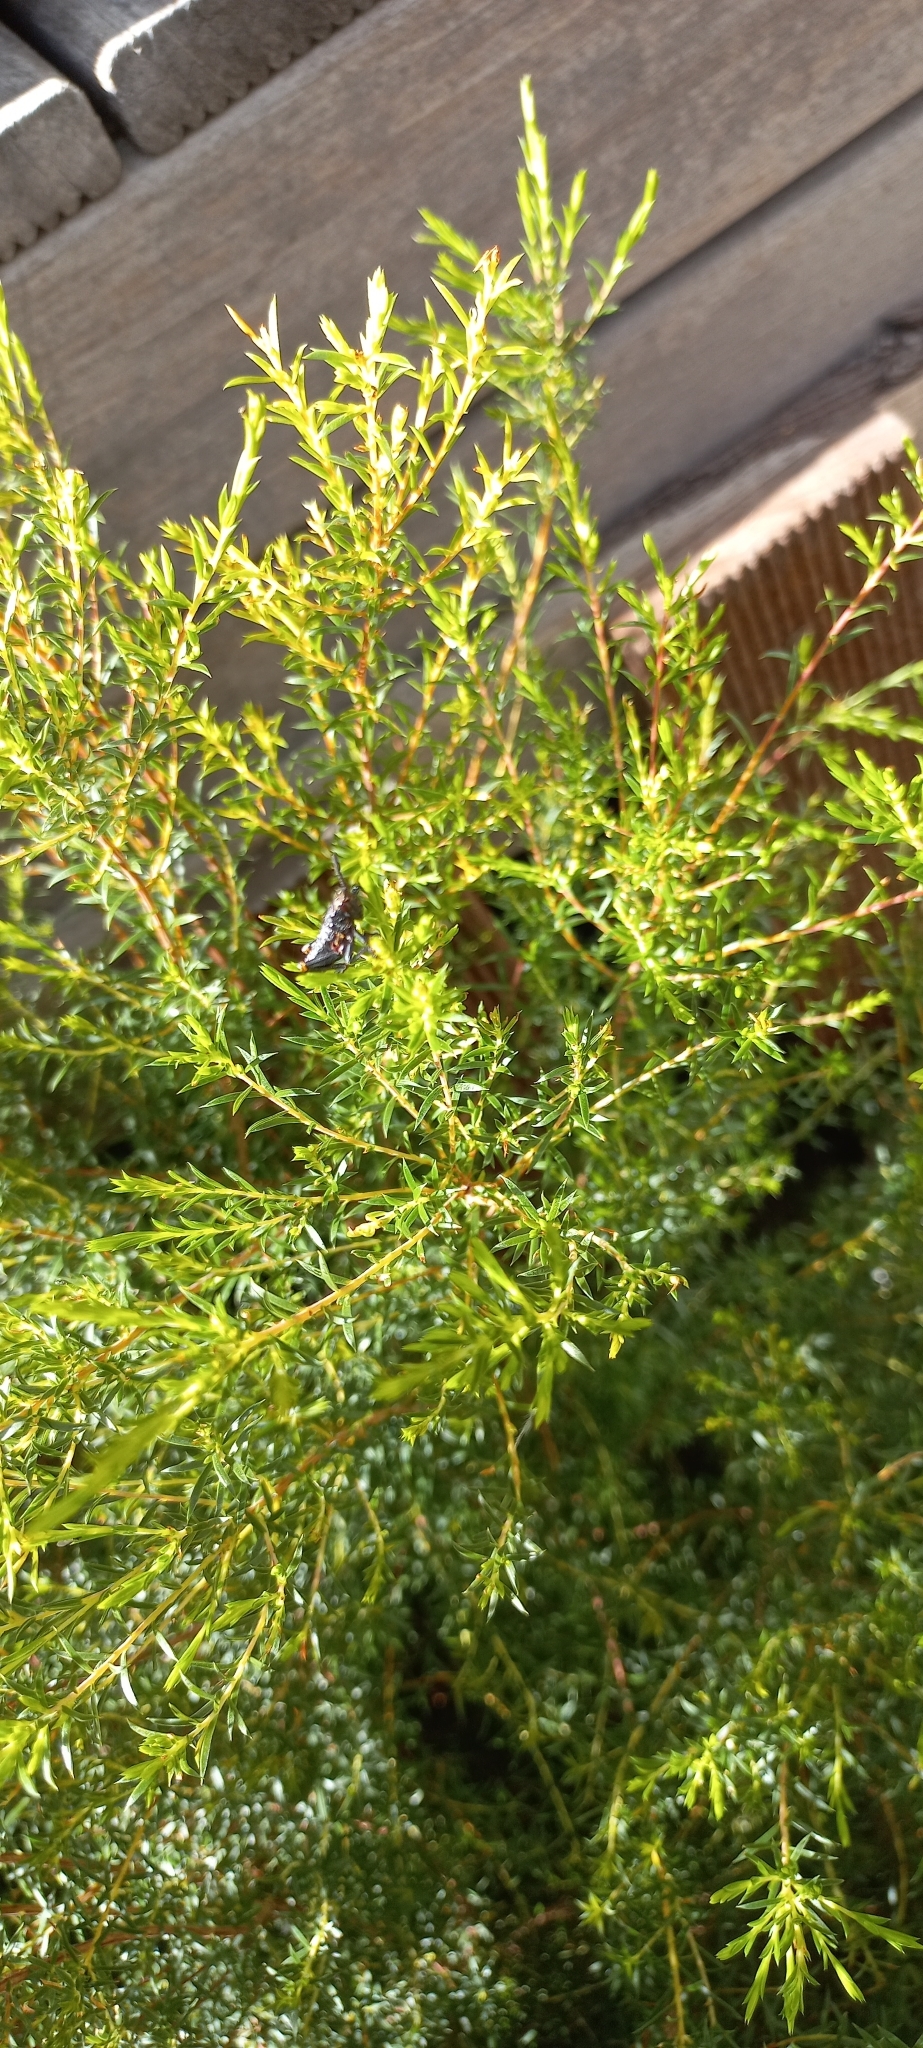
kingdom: Animalia
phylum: Arthropoda
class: Insecta
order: Orthoptera
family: Pyrgomorphidae
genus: Dictyophorus
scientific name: Dictyophorus spumans
